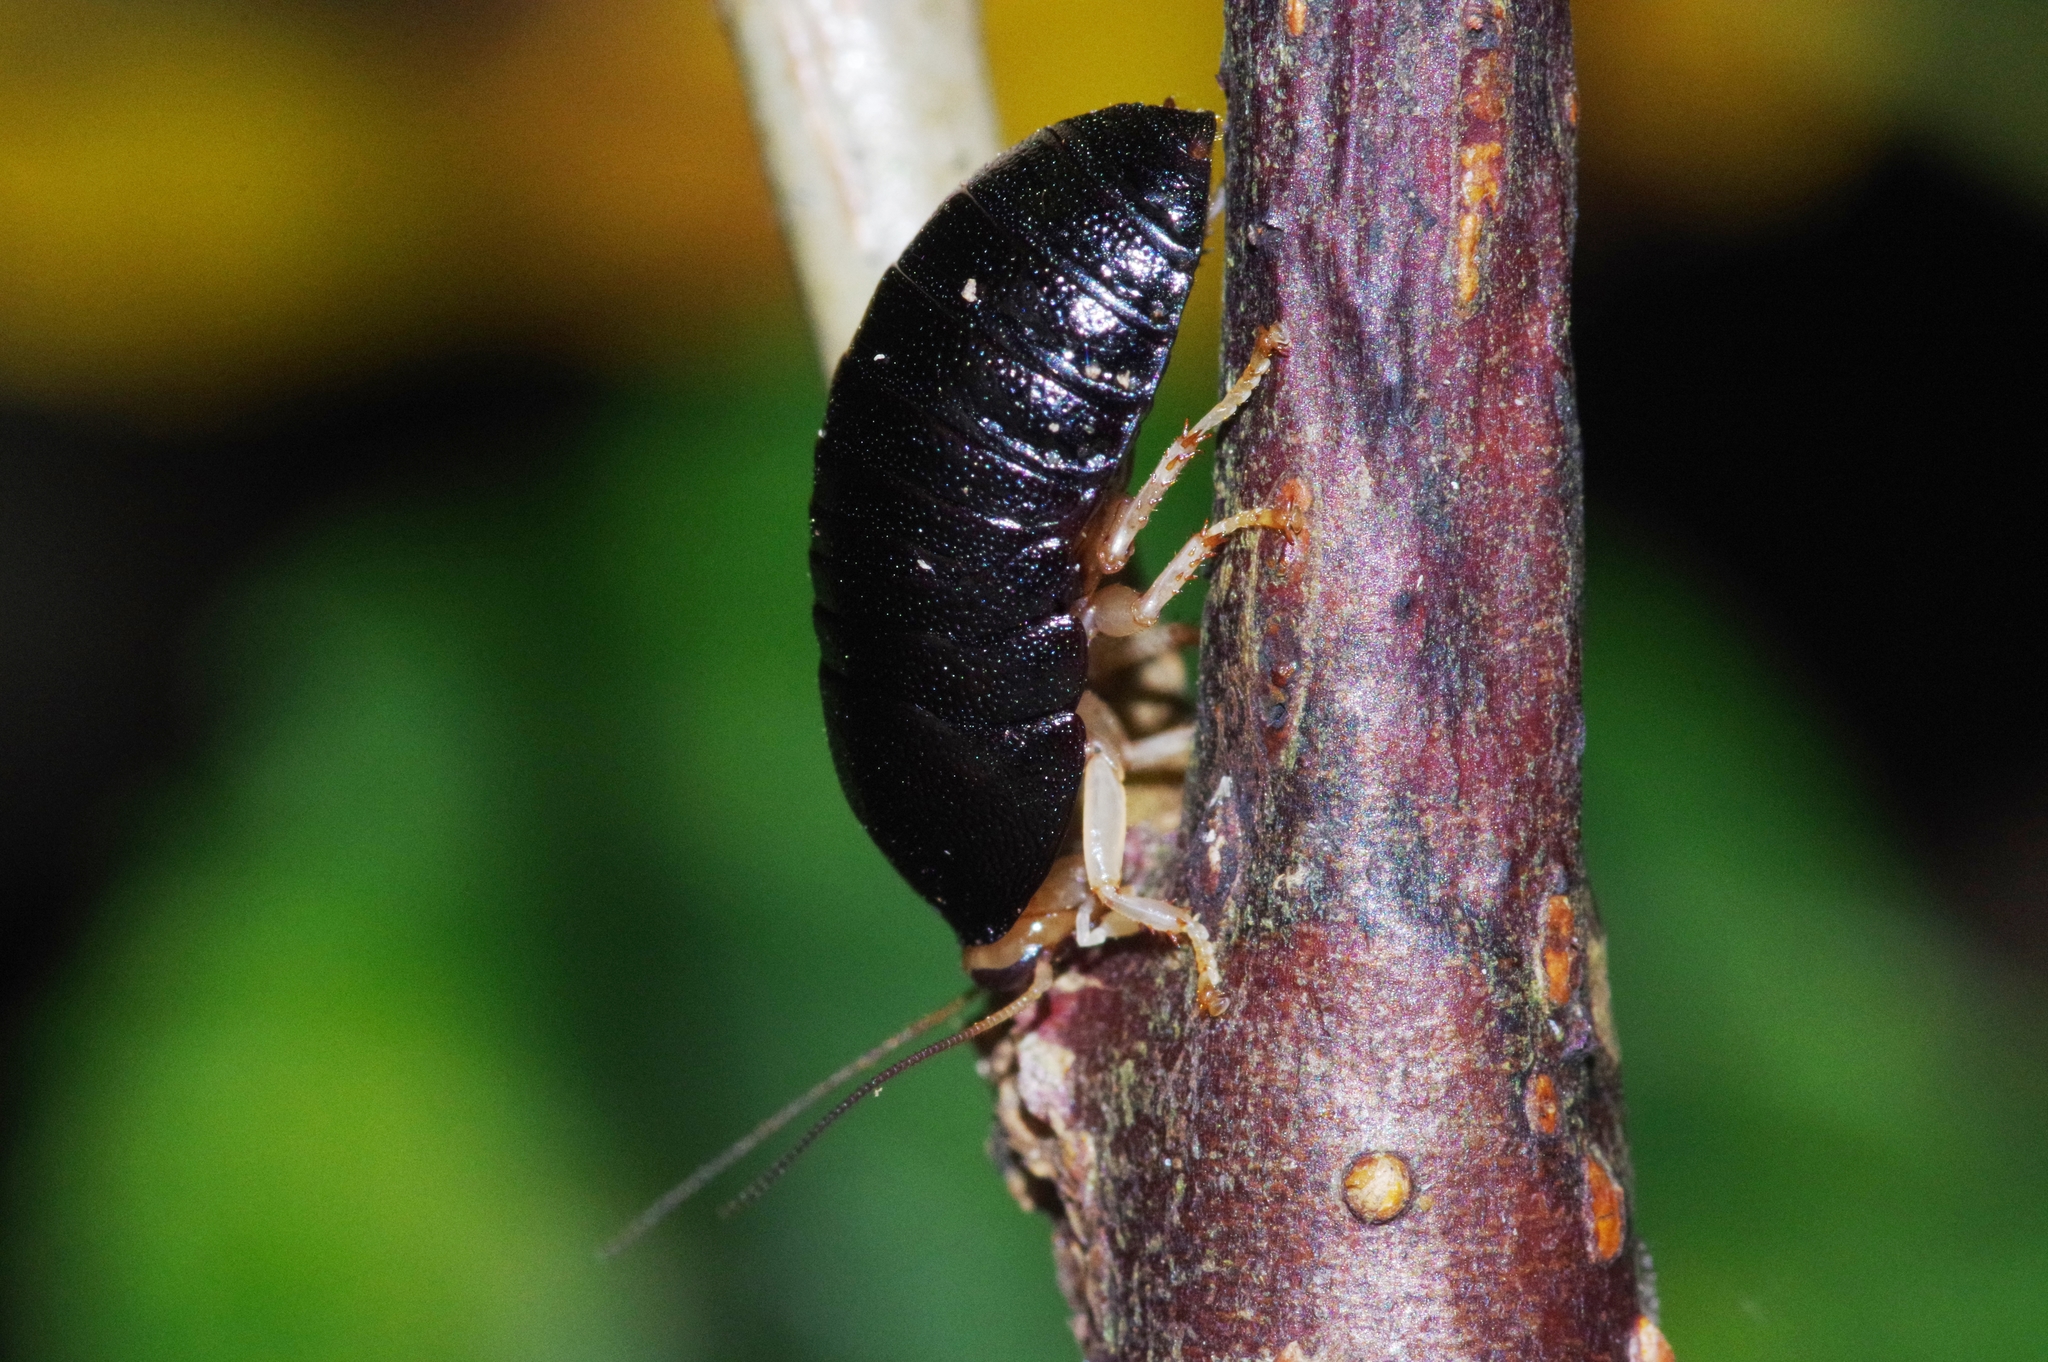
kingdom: Animalia
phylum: Arthropoda
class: Insecta
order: Blattodea
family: Blaberidae
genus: Perisphaerus
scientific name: Perisphaerus pygmaea
